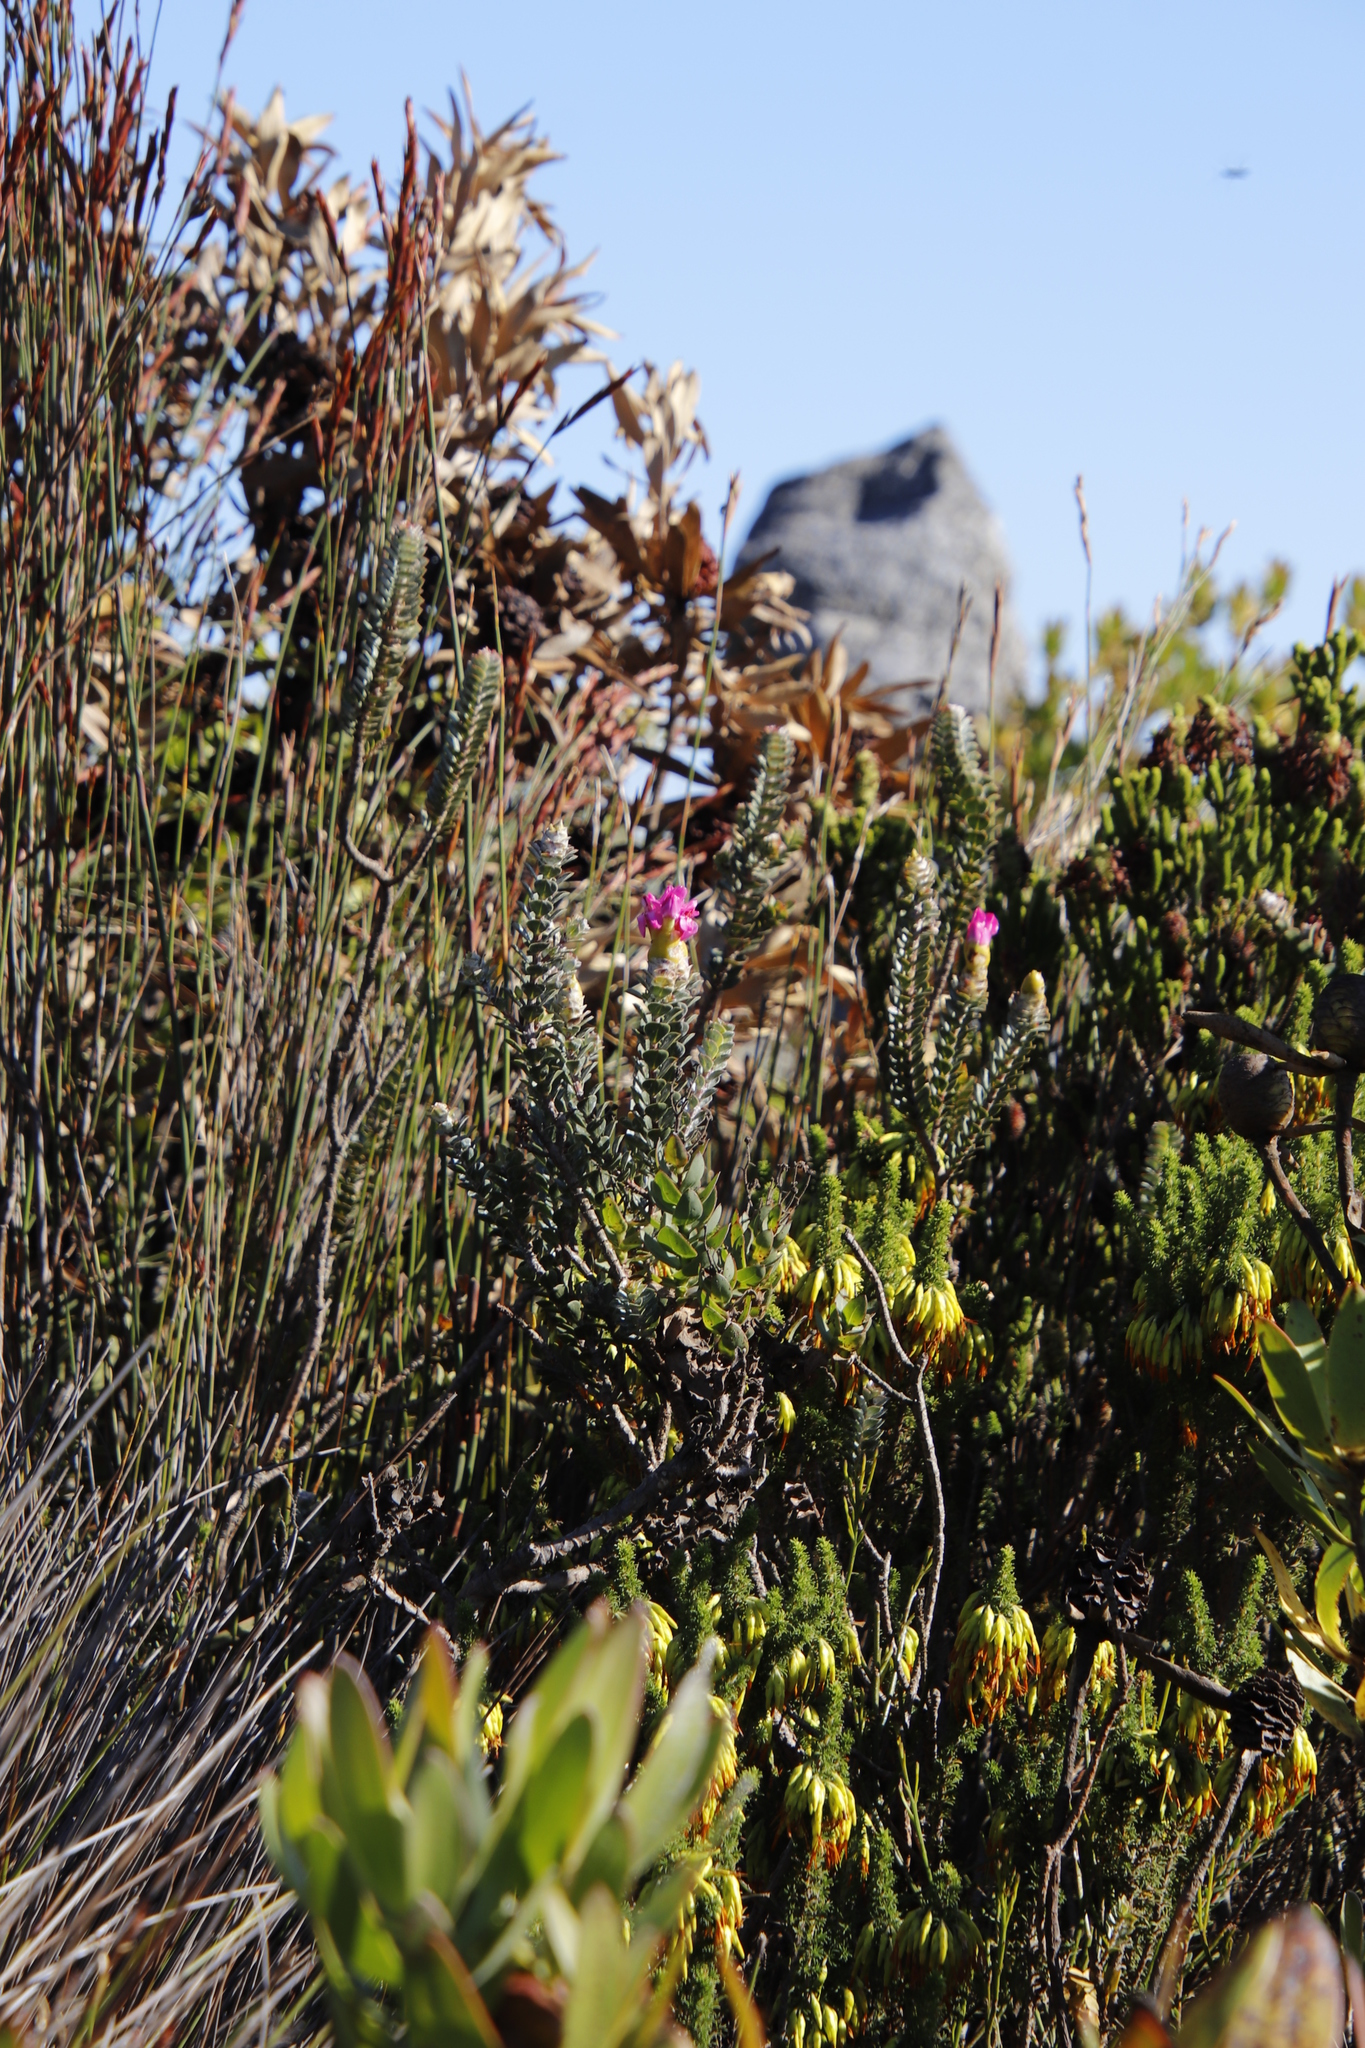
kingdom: Plantae
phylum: Tracheophyta
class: Magnoliopsida
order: Myrtales
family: Penaeaceae
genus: Saltera
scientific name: Saltera sarcocolla
